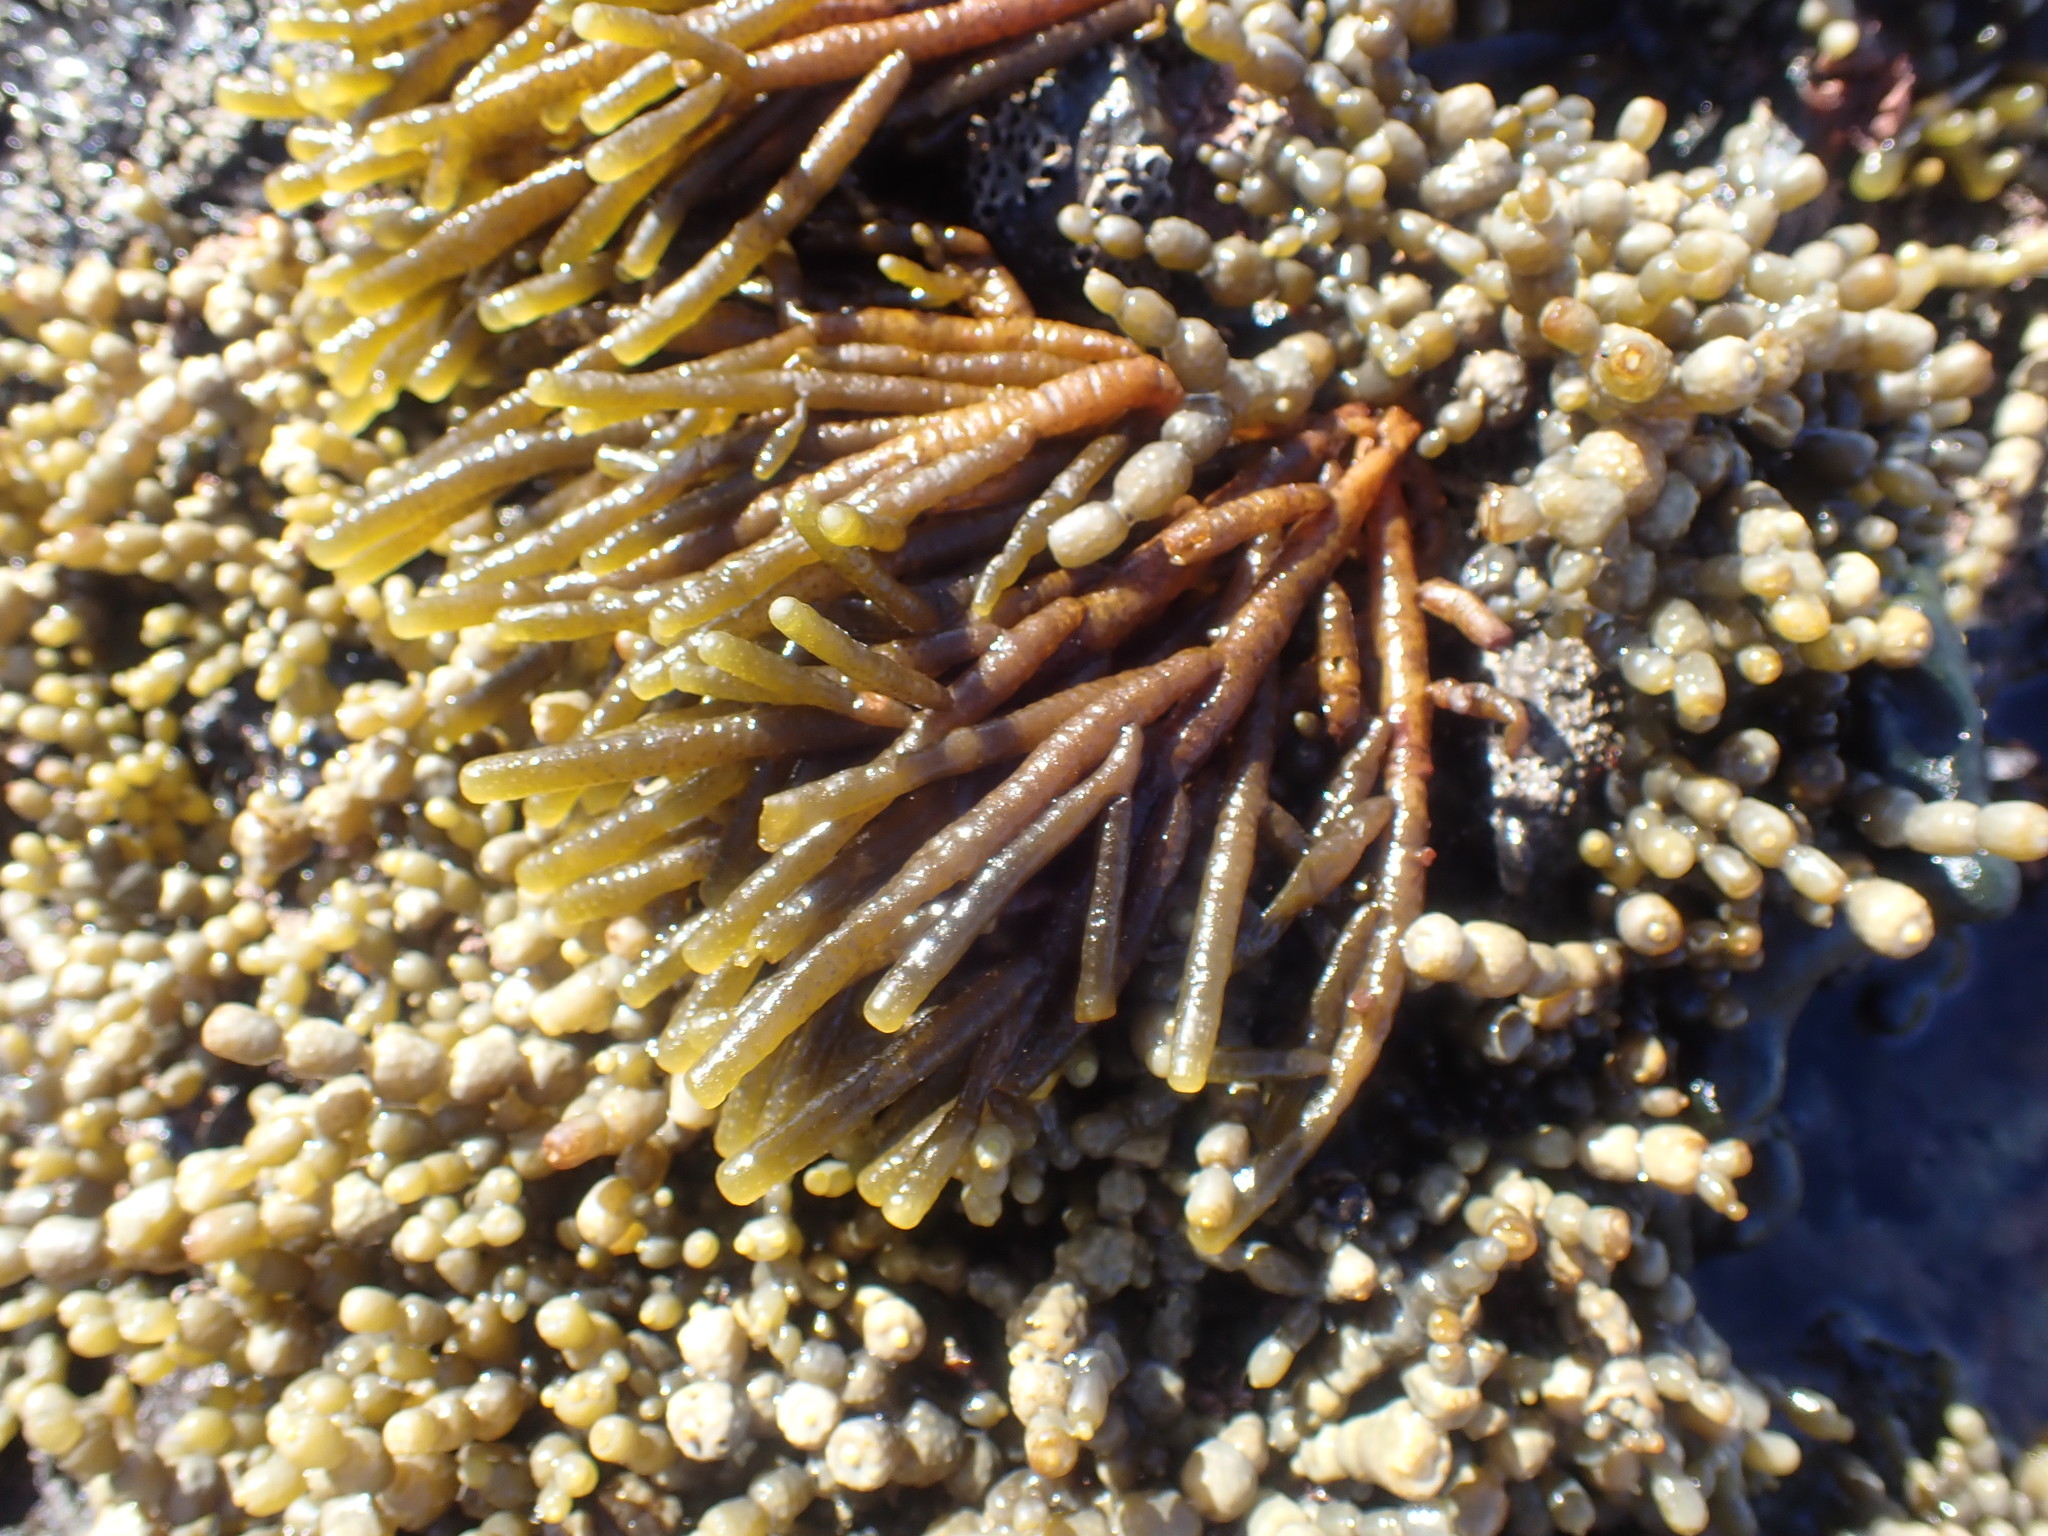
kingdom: Chromista
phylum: Ochrophyta
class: Phaeophyceae
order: Scytothamnales
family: Splachnidiaceae
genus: Splachnidium
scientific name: Splachnidium rugosum
